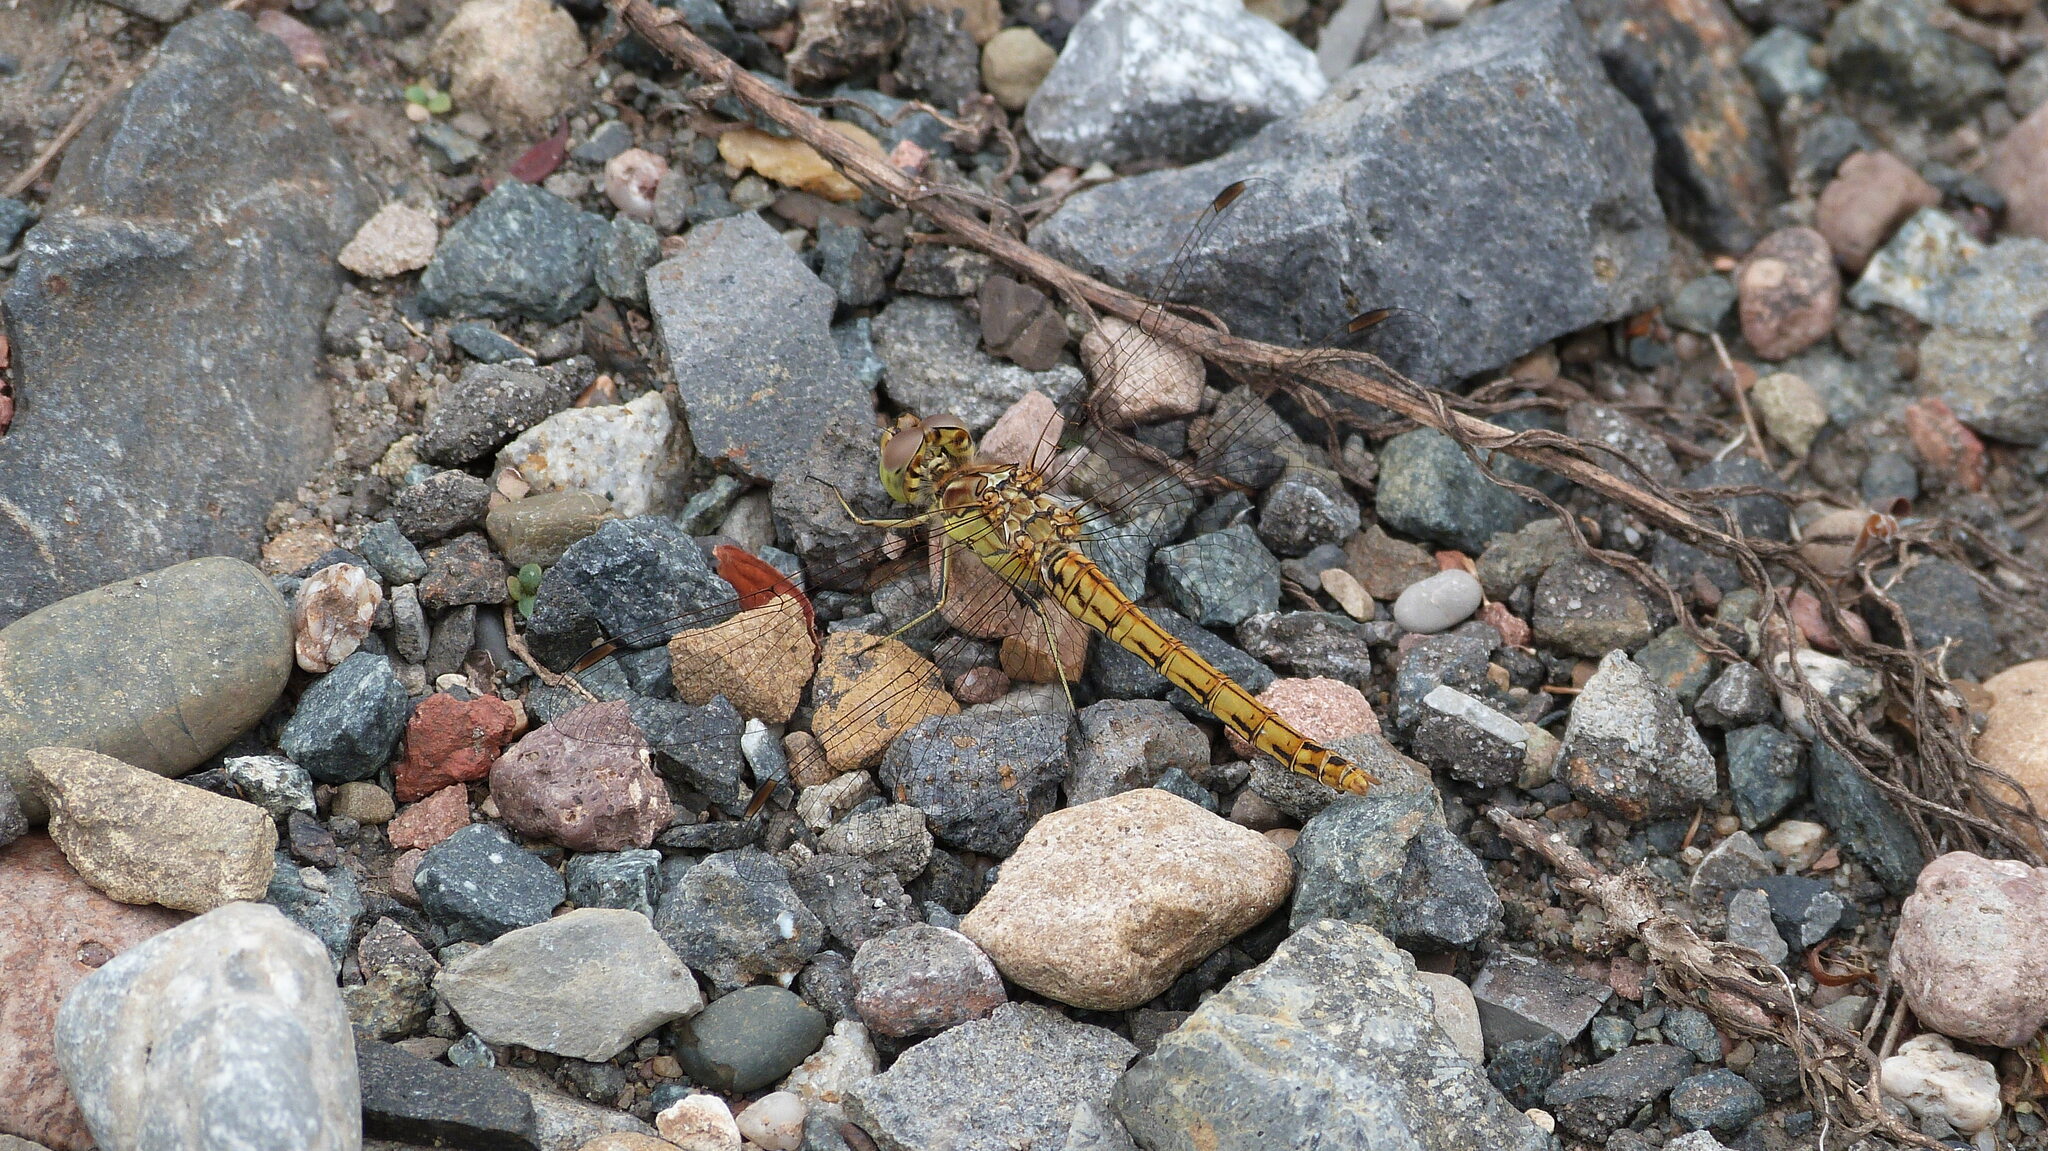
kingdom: Animalia
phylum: Arthropoda
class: Insecta
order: Odonata
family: Libellulidae
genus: Sympetrum
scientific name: Sympetrum vulgatum
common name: Vagrant darter
